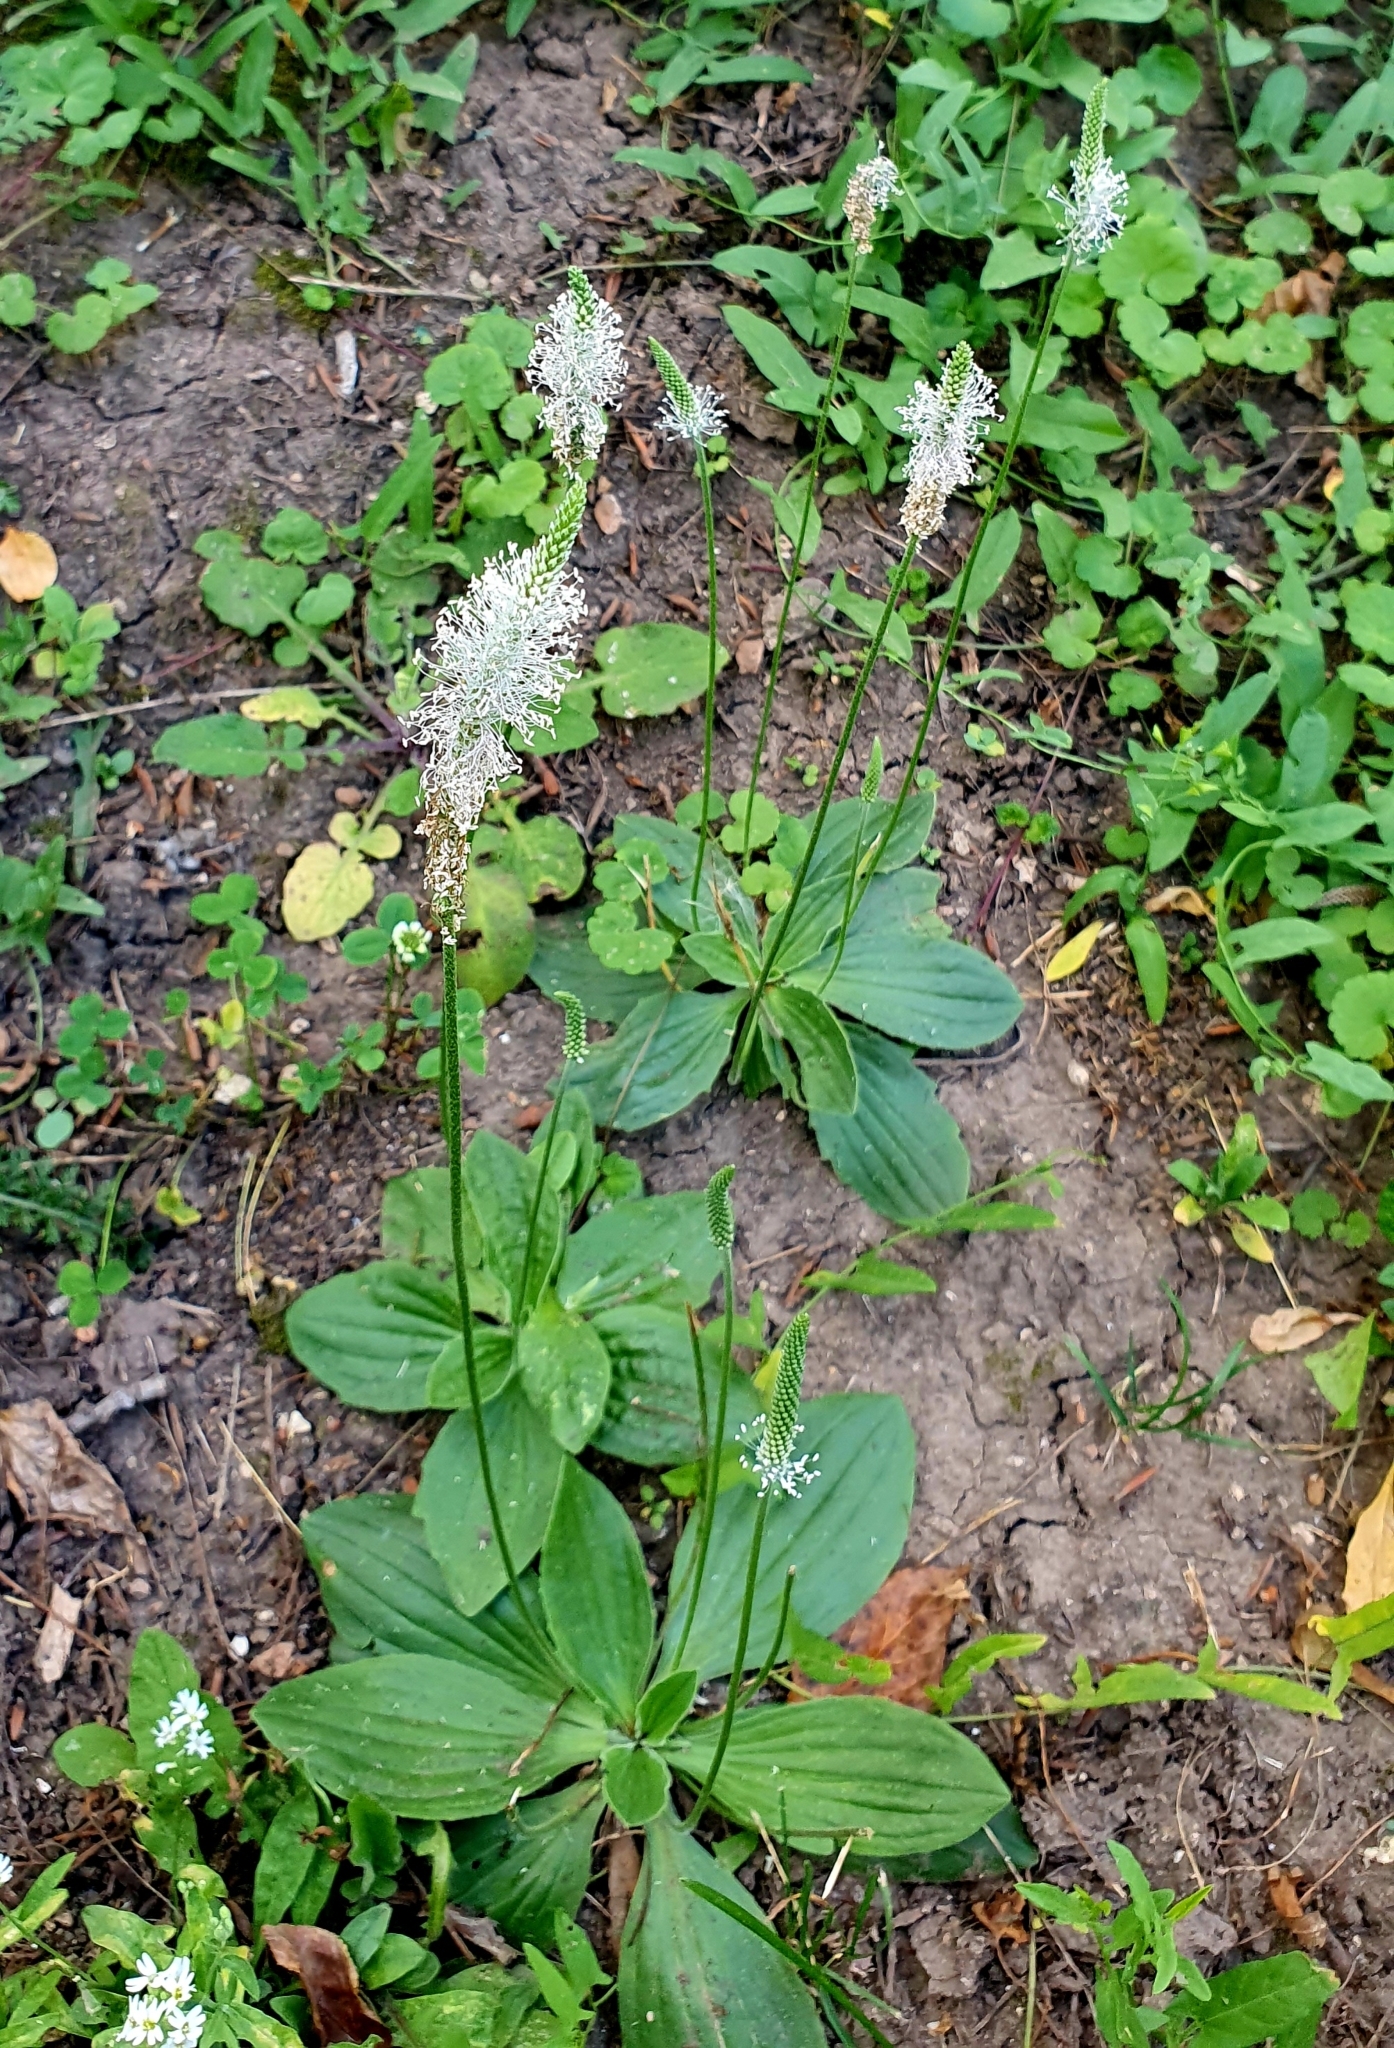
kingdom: Plantae
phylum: Tracheophyta
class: Magnoliopsida
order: Lamiales
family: Plantaginaceae
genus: Plantago
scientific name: Plantago media
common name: Hoary plantain
